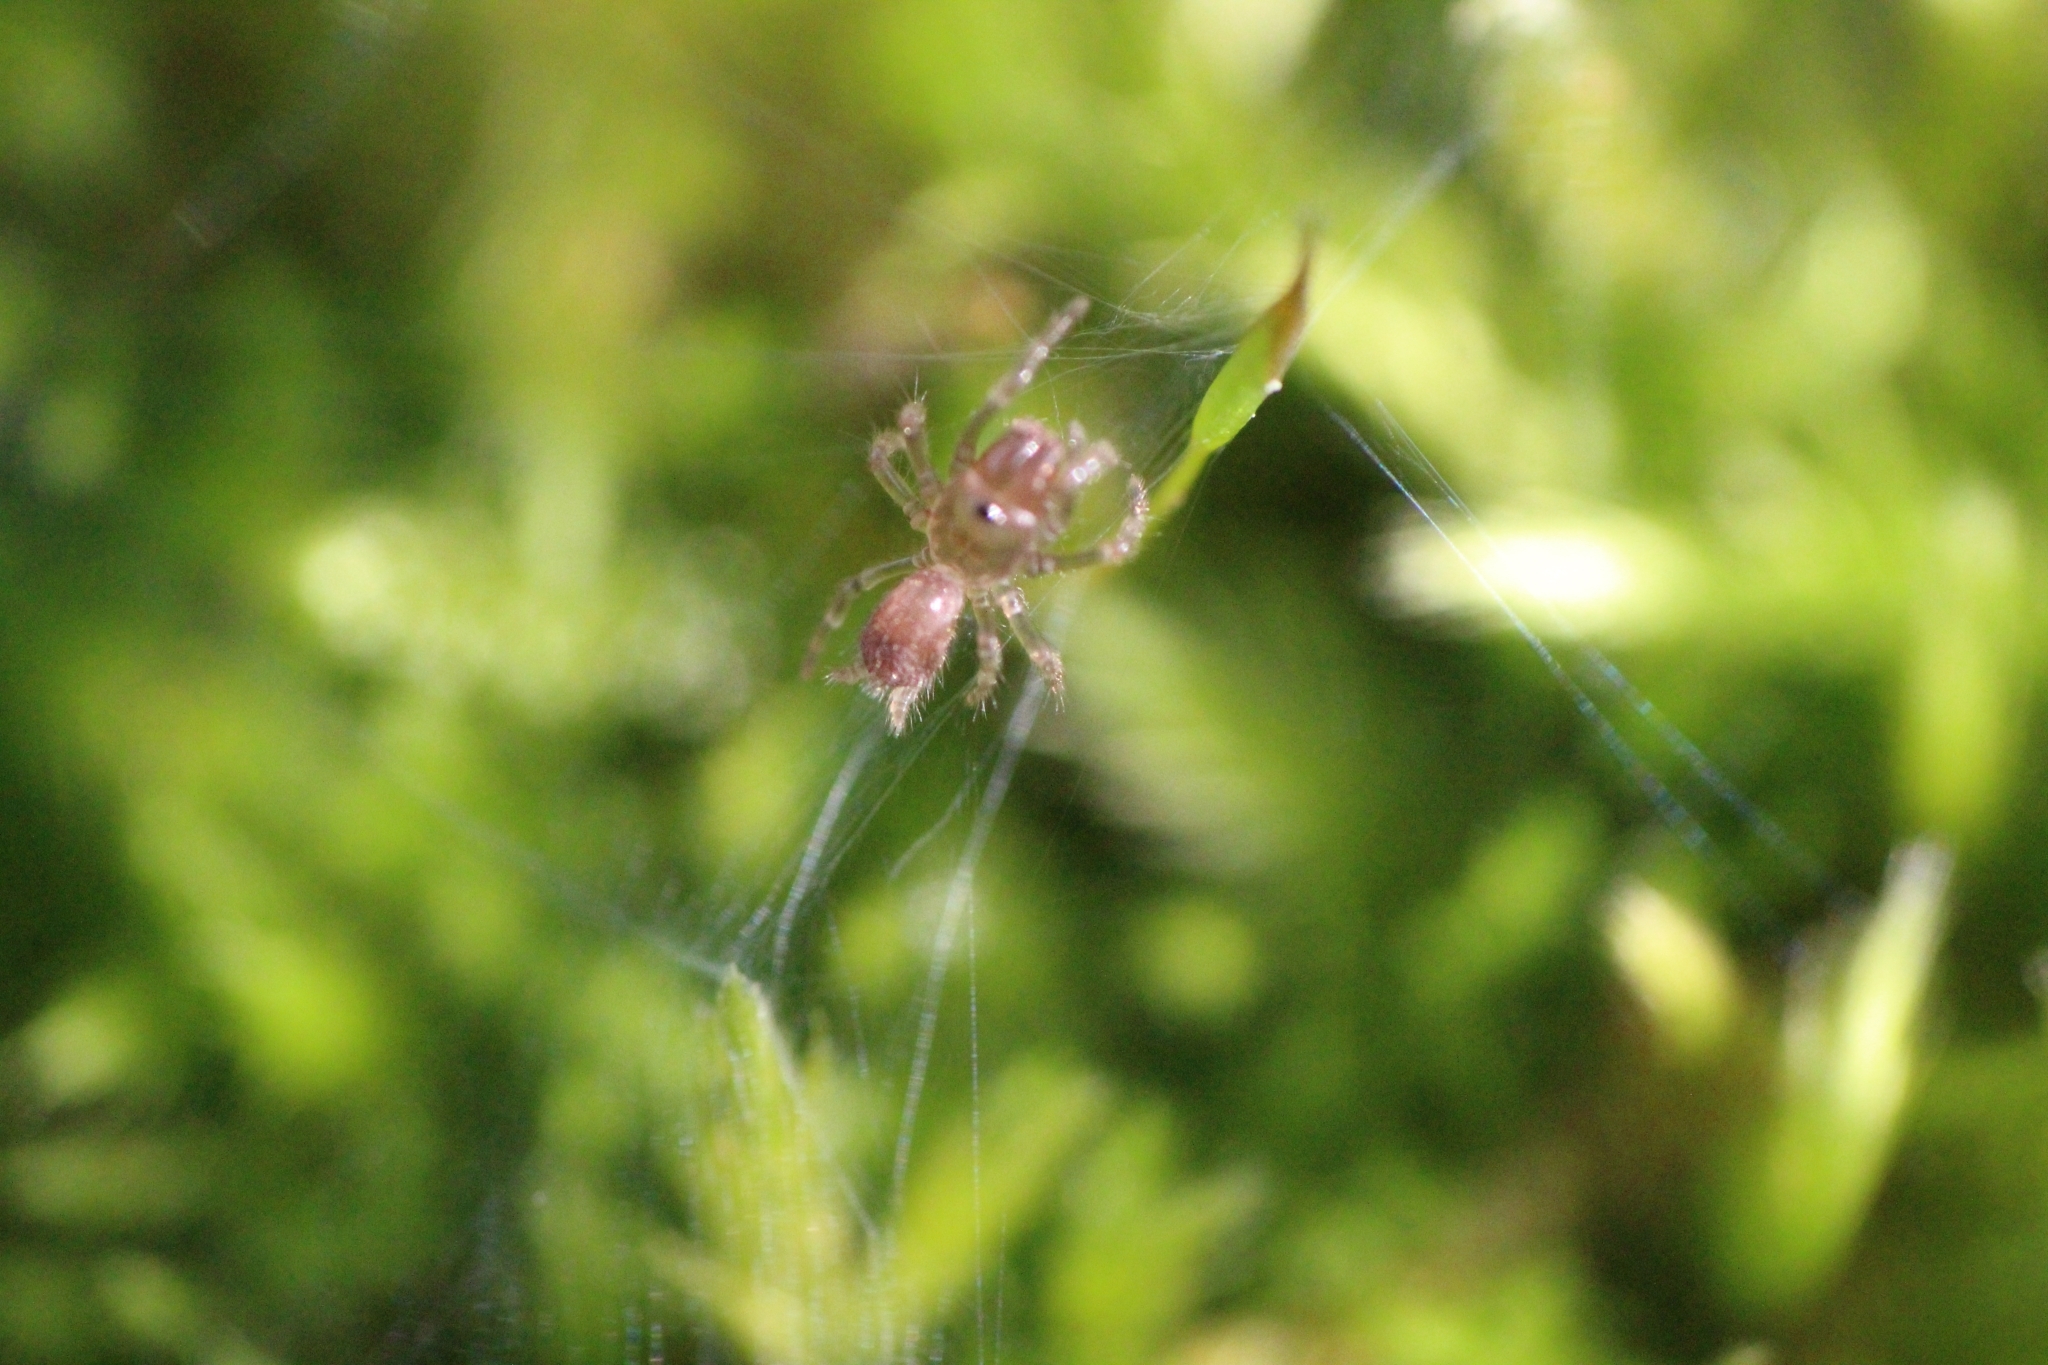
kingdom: Animalia
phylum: Arthropoda
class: Arachnida
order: Araneae
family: Atypidae
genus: Atypus
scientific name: Atypus
